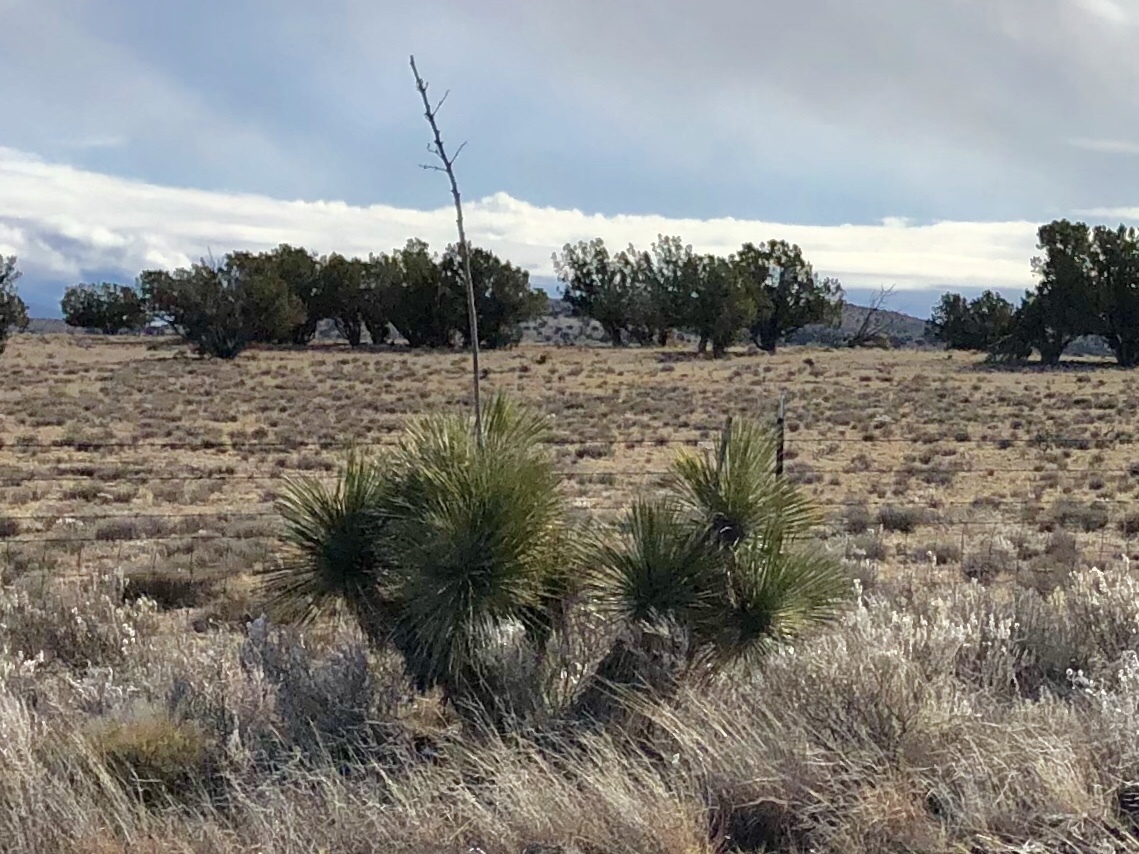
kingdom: Plantae
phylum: Tracheophyta
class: Liliopsida
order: Asparagales
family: Asparagaceae
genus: Yucca
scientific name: Yucca elata
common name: Palmella
